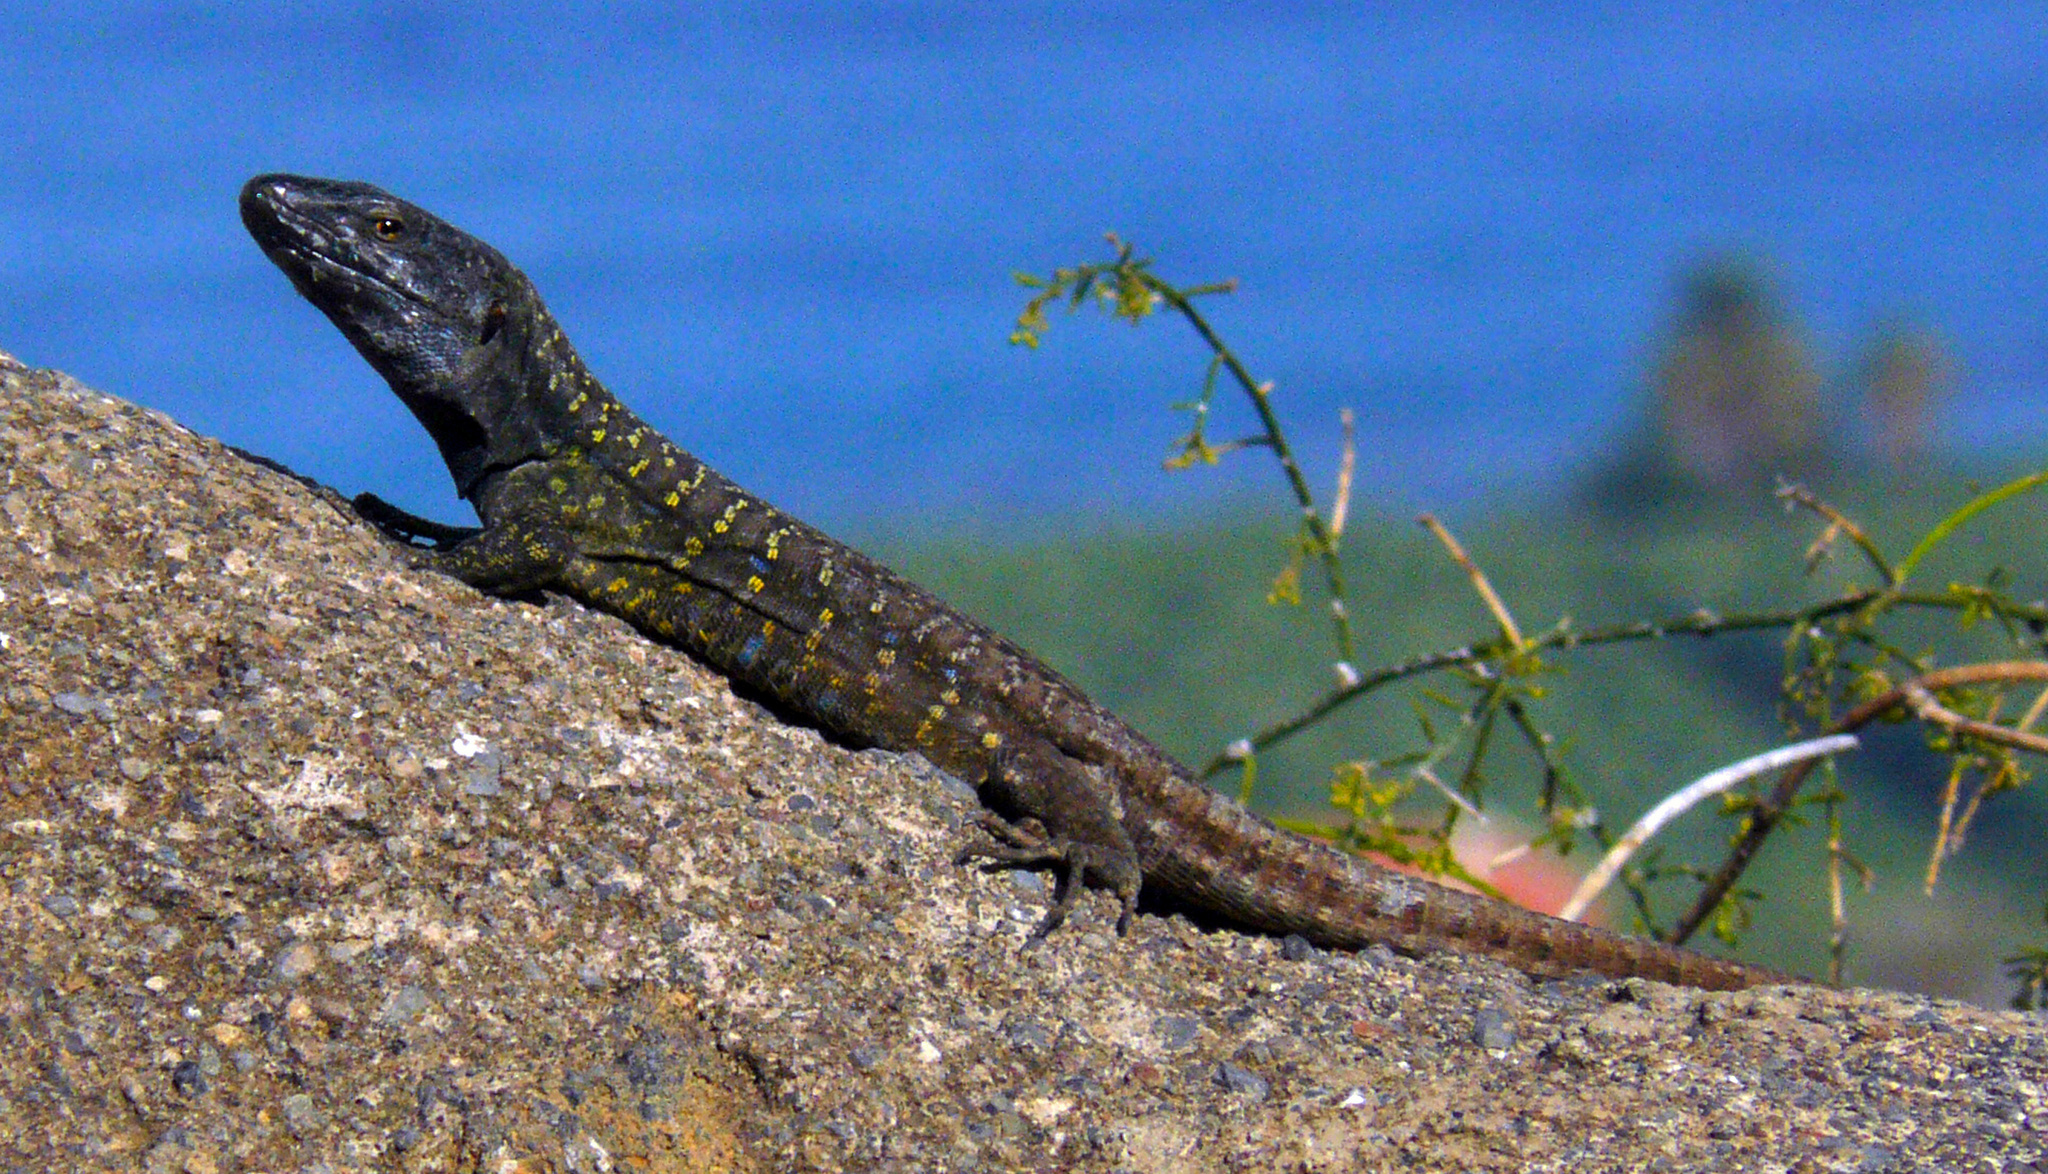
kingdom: Animalia
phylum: Chordata
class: Squamata
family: Lacertidae
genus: Gallotia
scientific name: Gallotia galloti
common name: Gallot's lizard
